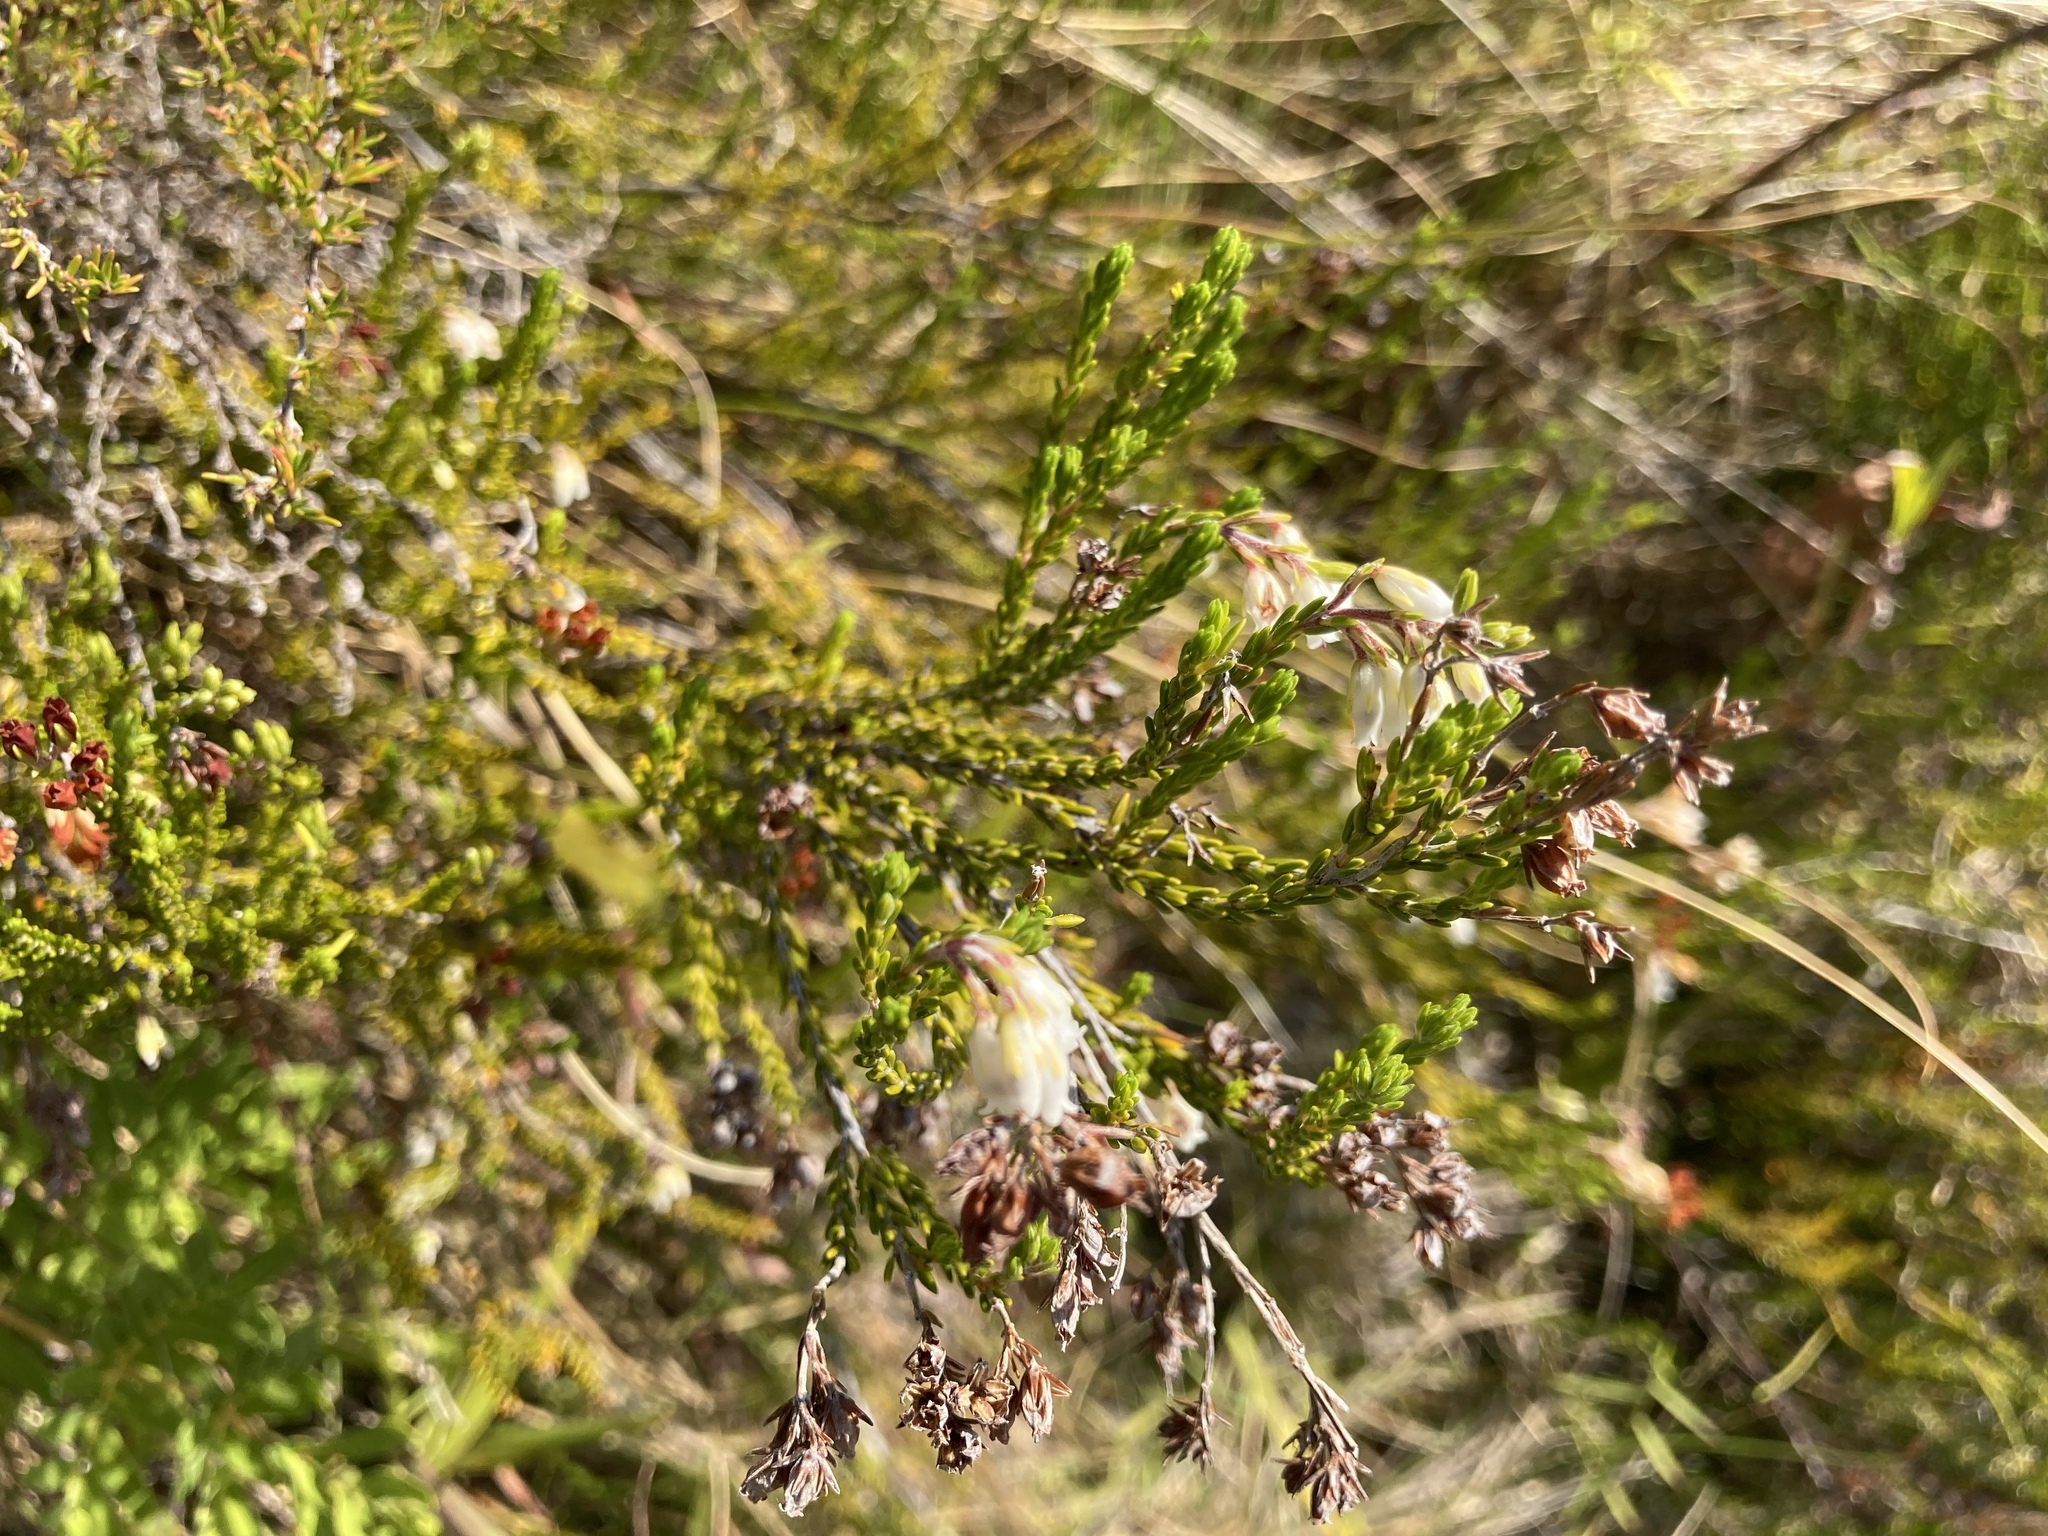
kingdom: Plantae
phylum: Tracheophyta
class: Magnoliopsida
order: Ericales
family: Ericaceae
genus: Erica
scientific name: Erica rivularis
